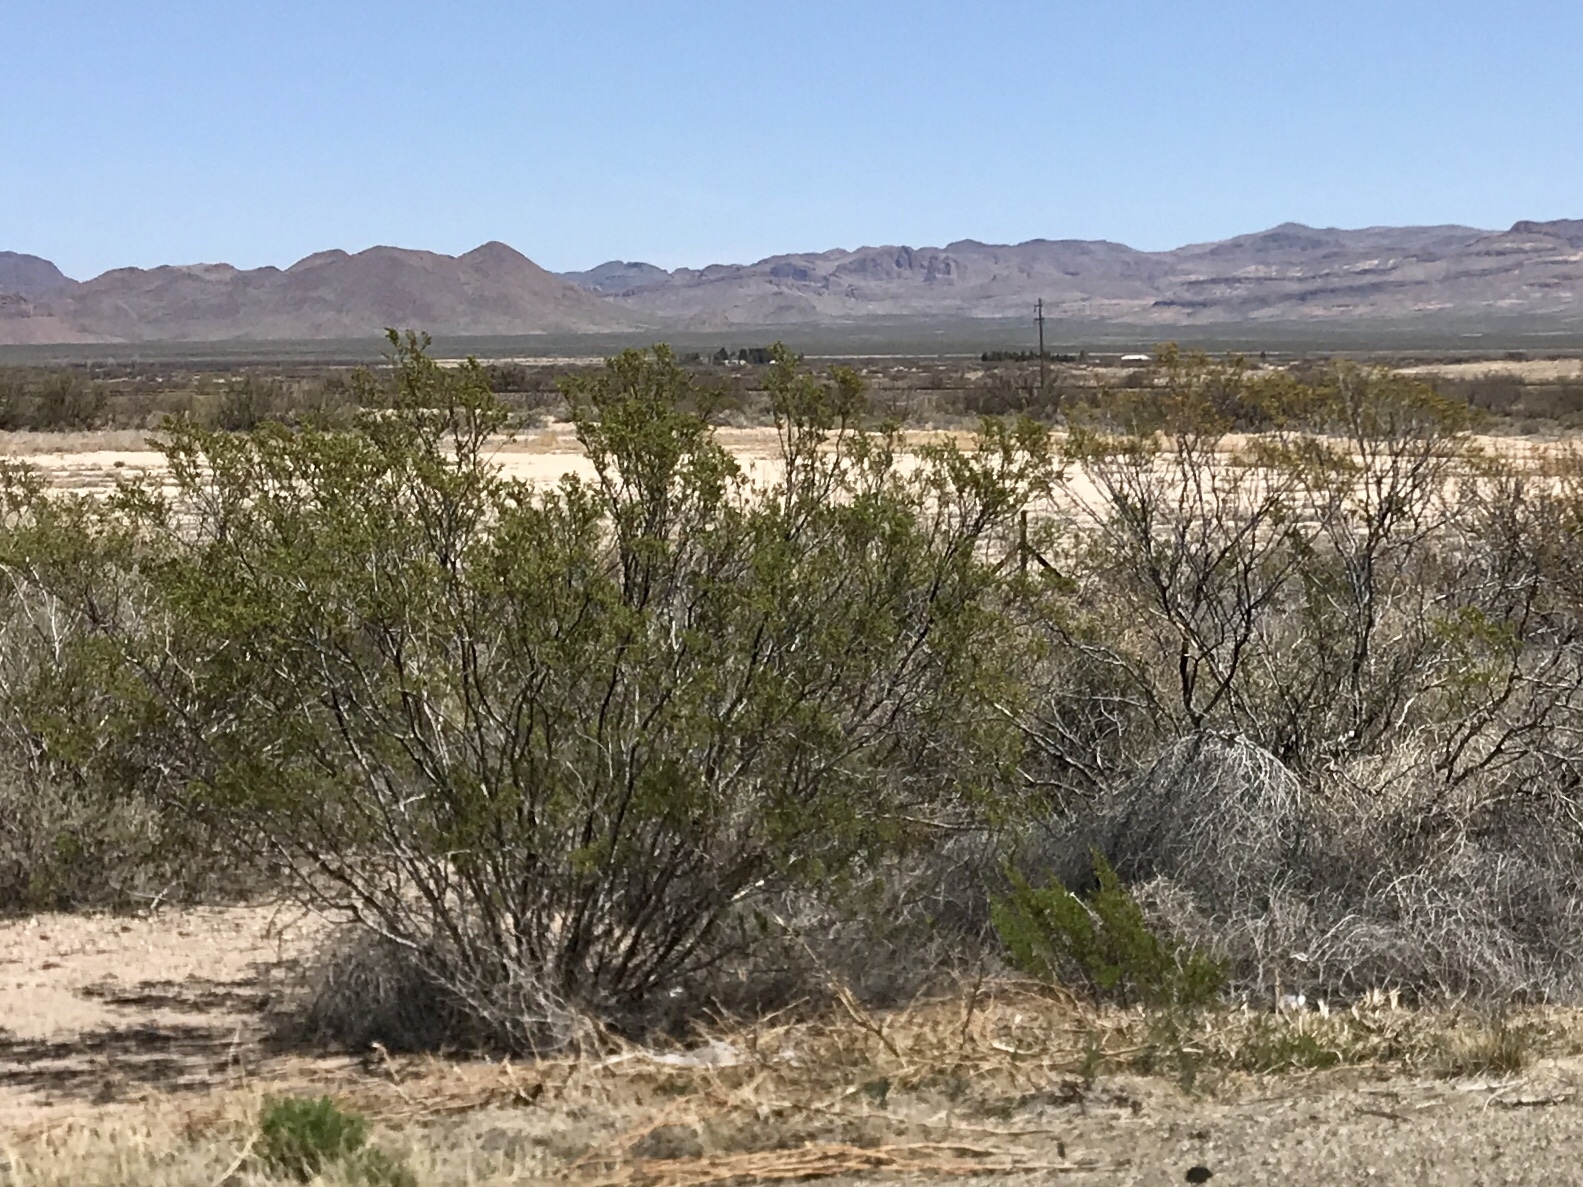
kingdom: Plantae
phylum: Tracheophyta
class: Magnoliopsida
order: Zygophyllales
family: Zygophyllaceae
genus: Larrea
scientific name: Larrea tridentata
